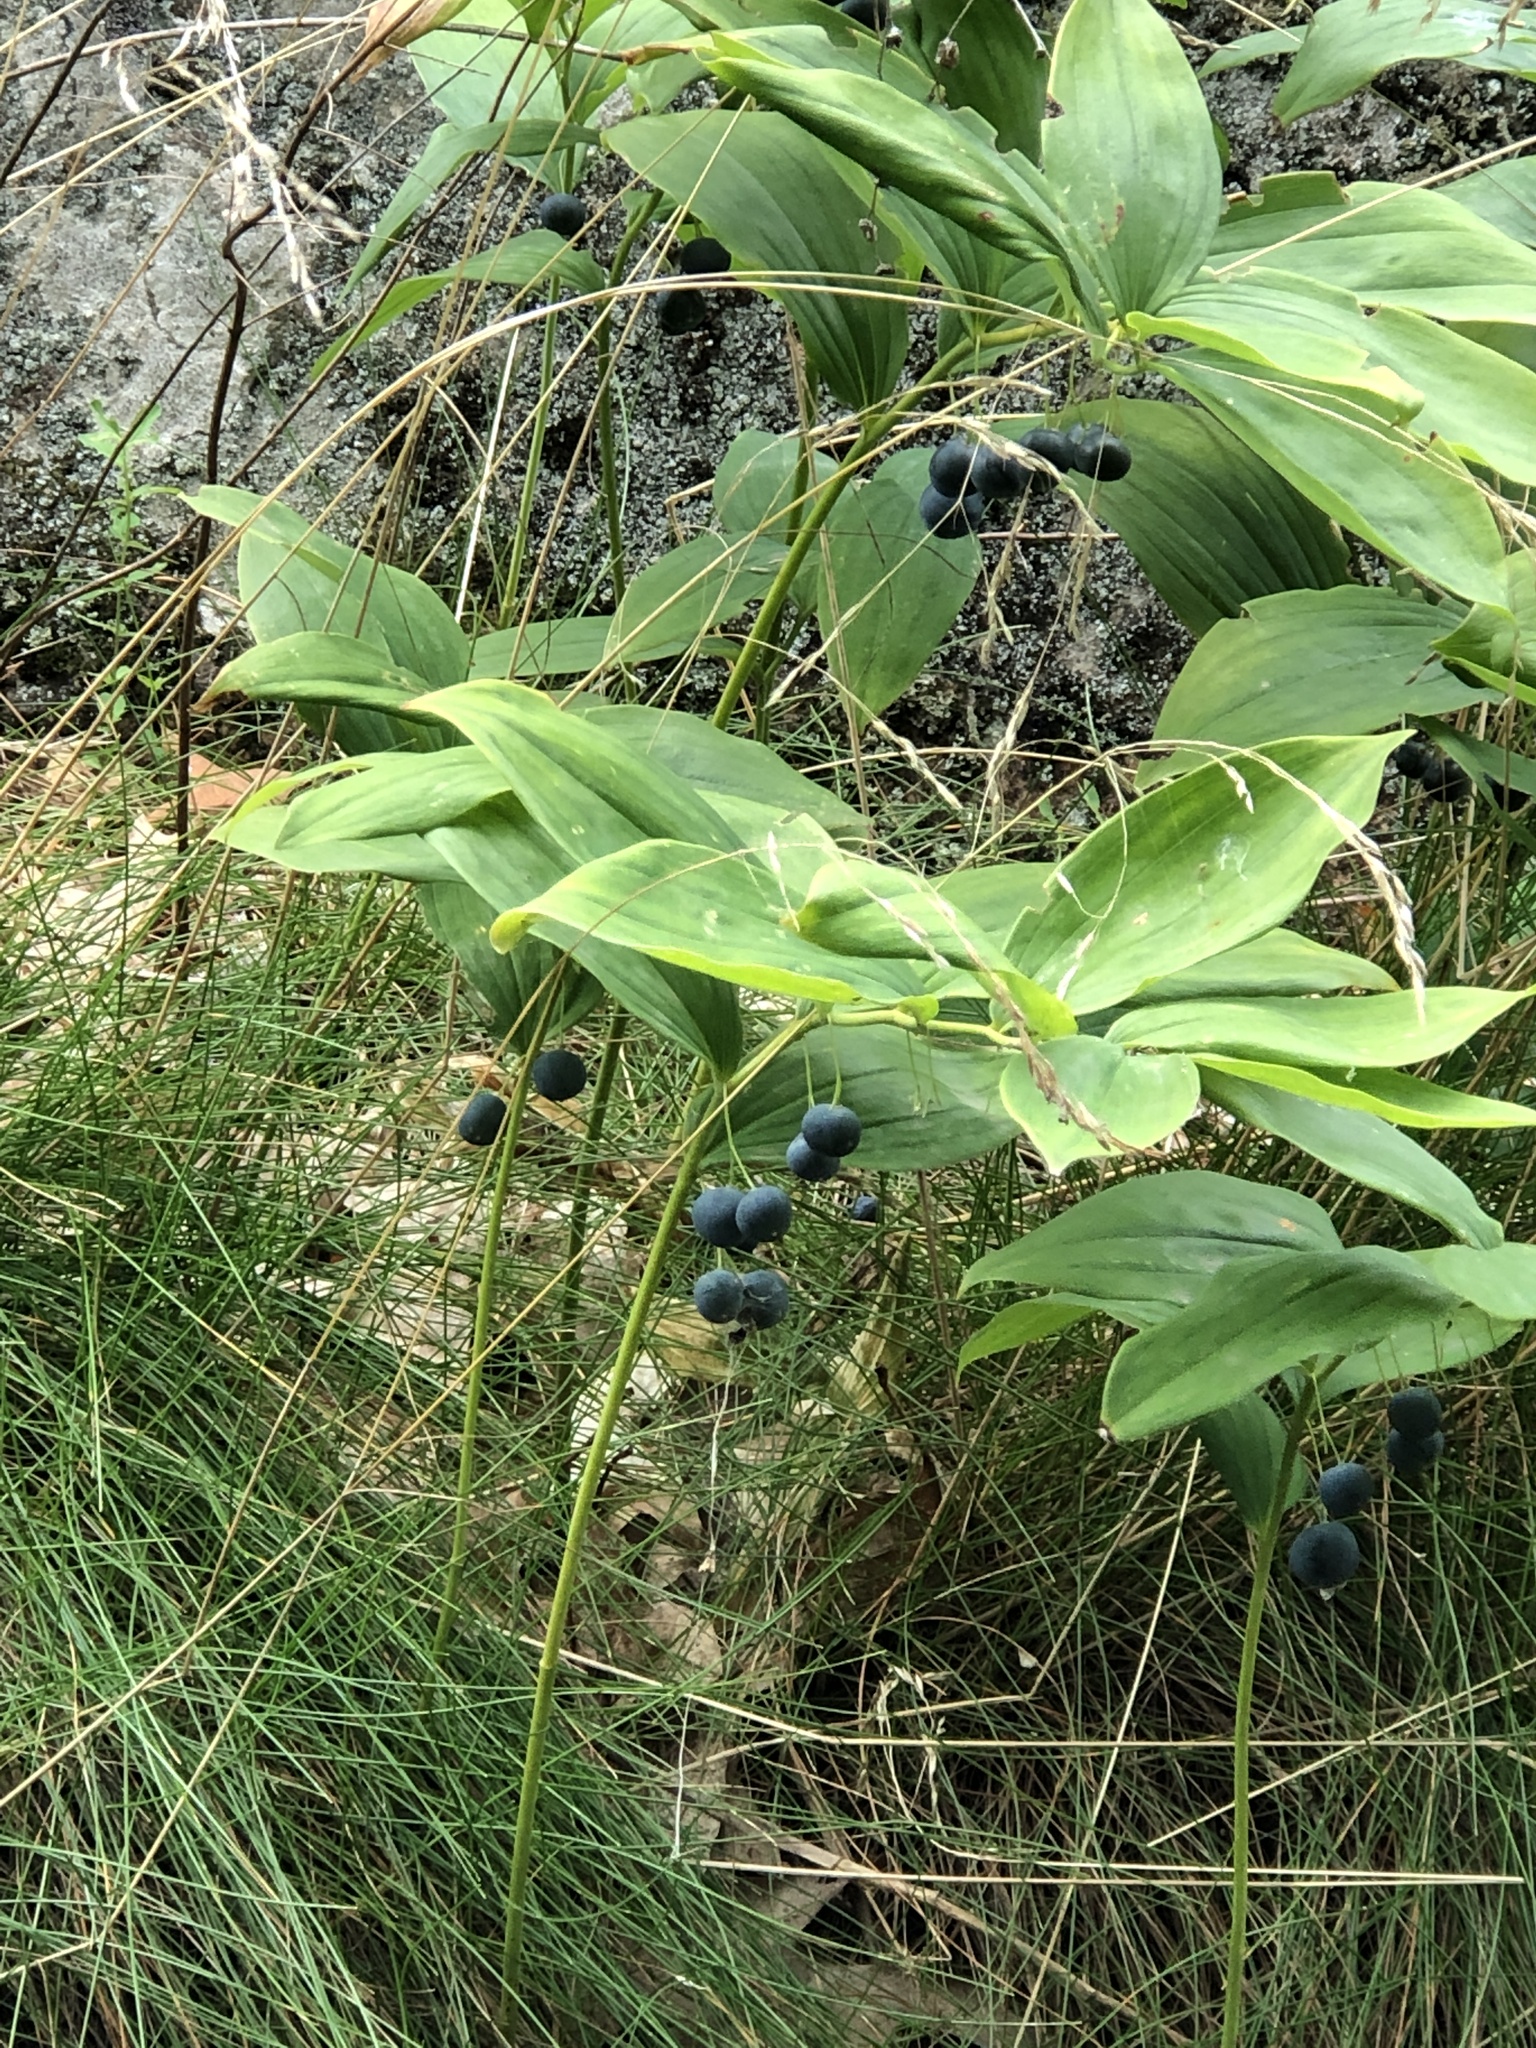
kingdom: Plantae
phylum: Tracheophyta
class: Liliopsida
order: Asparagales
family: Asparagaceae
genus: Polygonatum
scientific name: Polygonatum pubescens
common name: Downy solomon's seal
